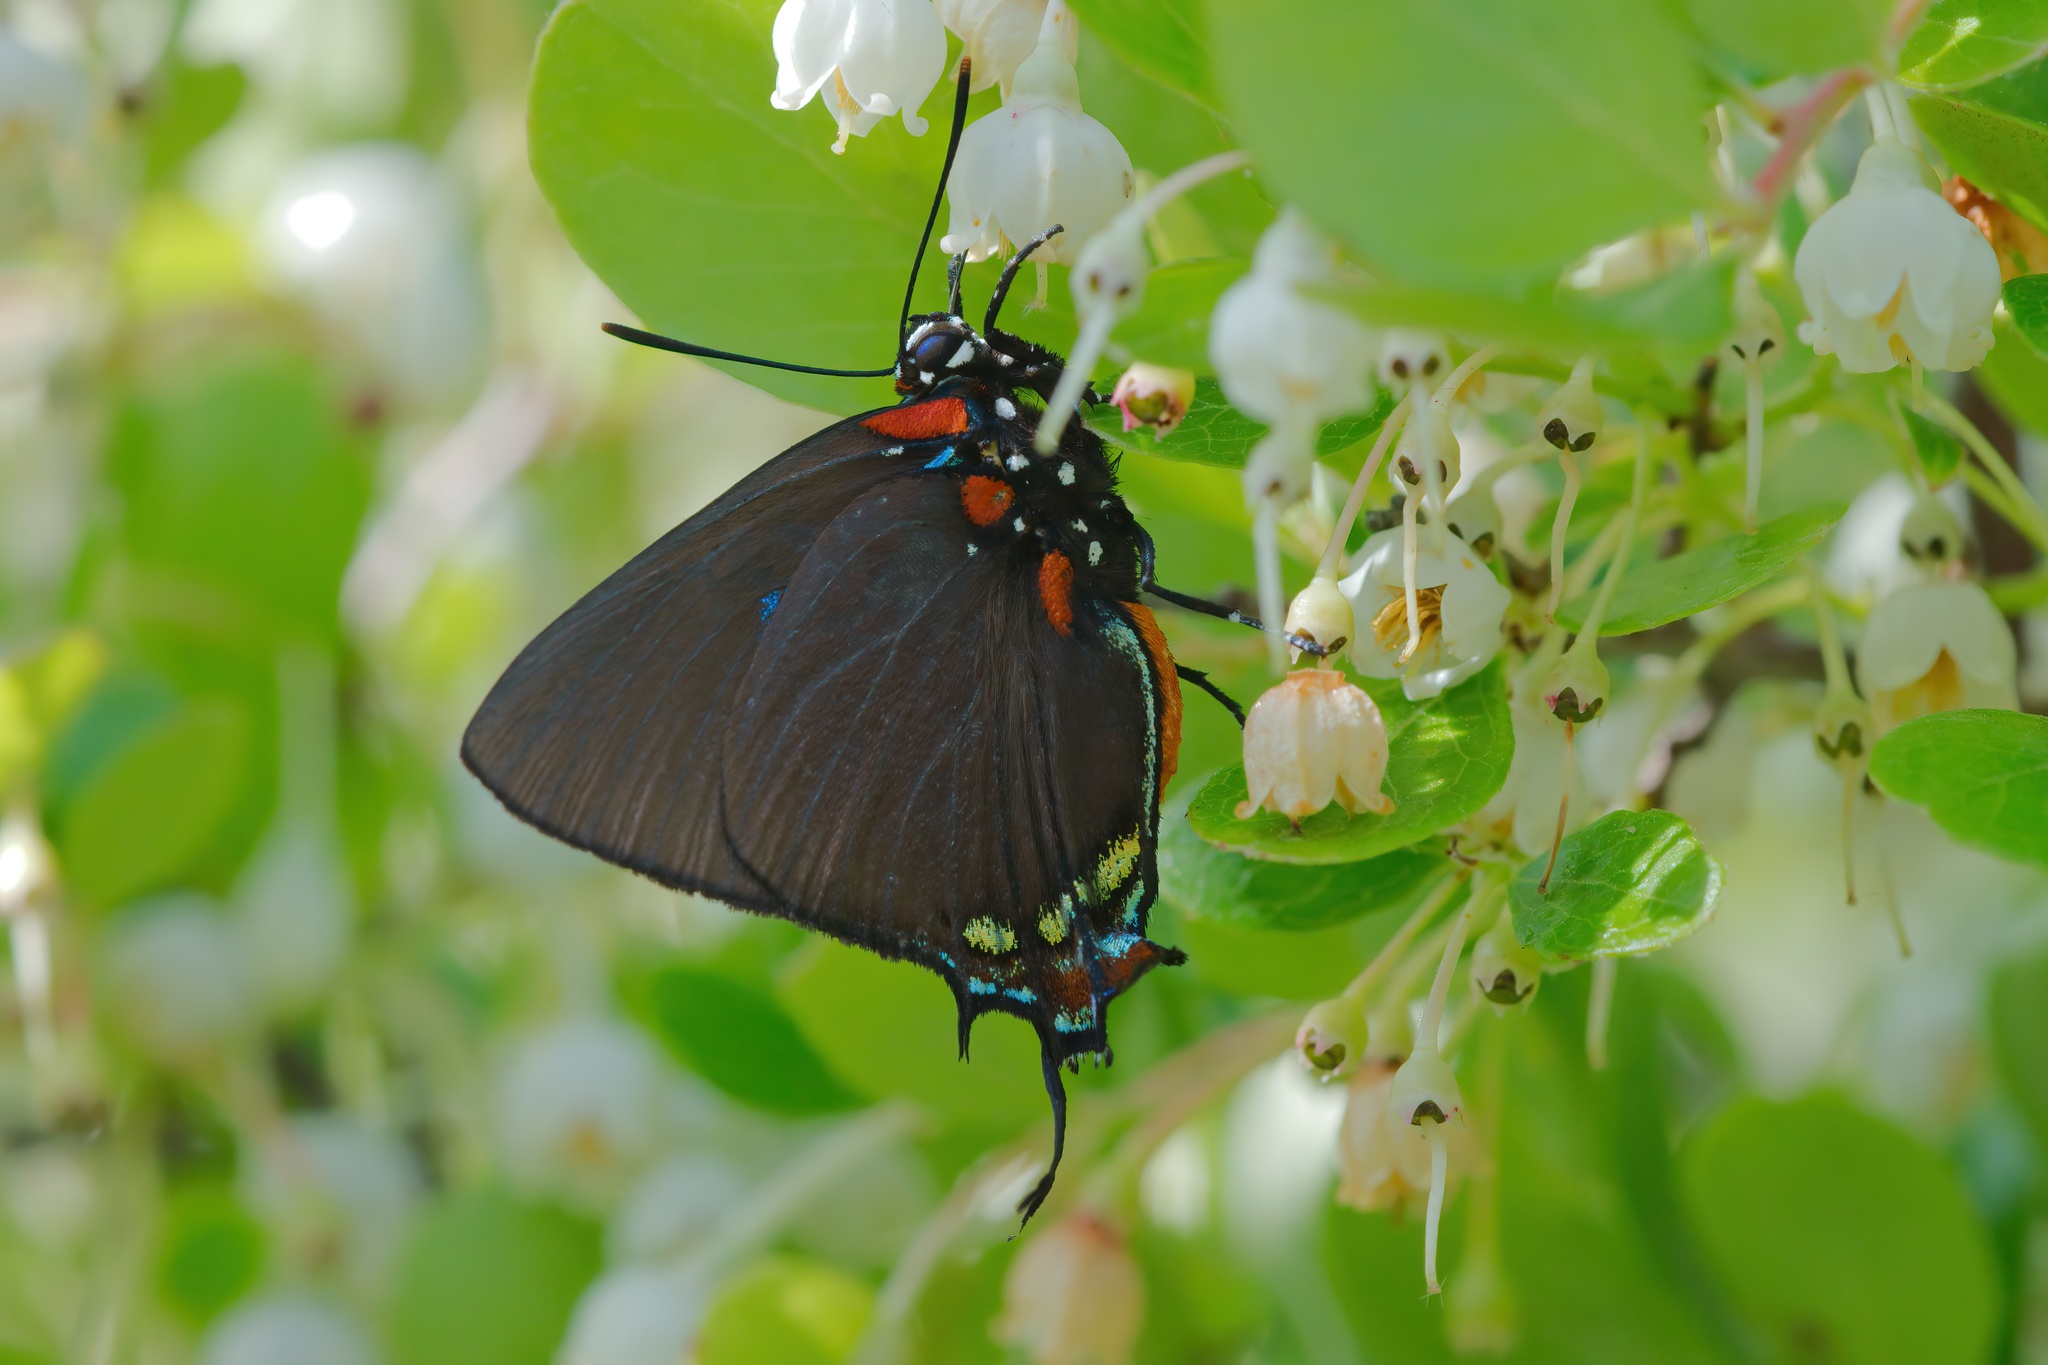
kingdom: Animalia
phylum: Arthropoda
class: Insecta
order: Lepidoptera
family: Lycaenidae
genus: Atlides
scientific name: Atlides halesus
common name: Great purple hairstreak
